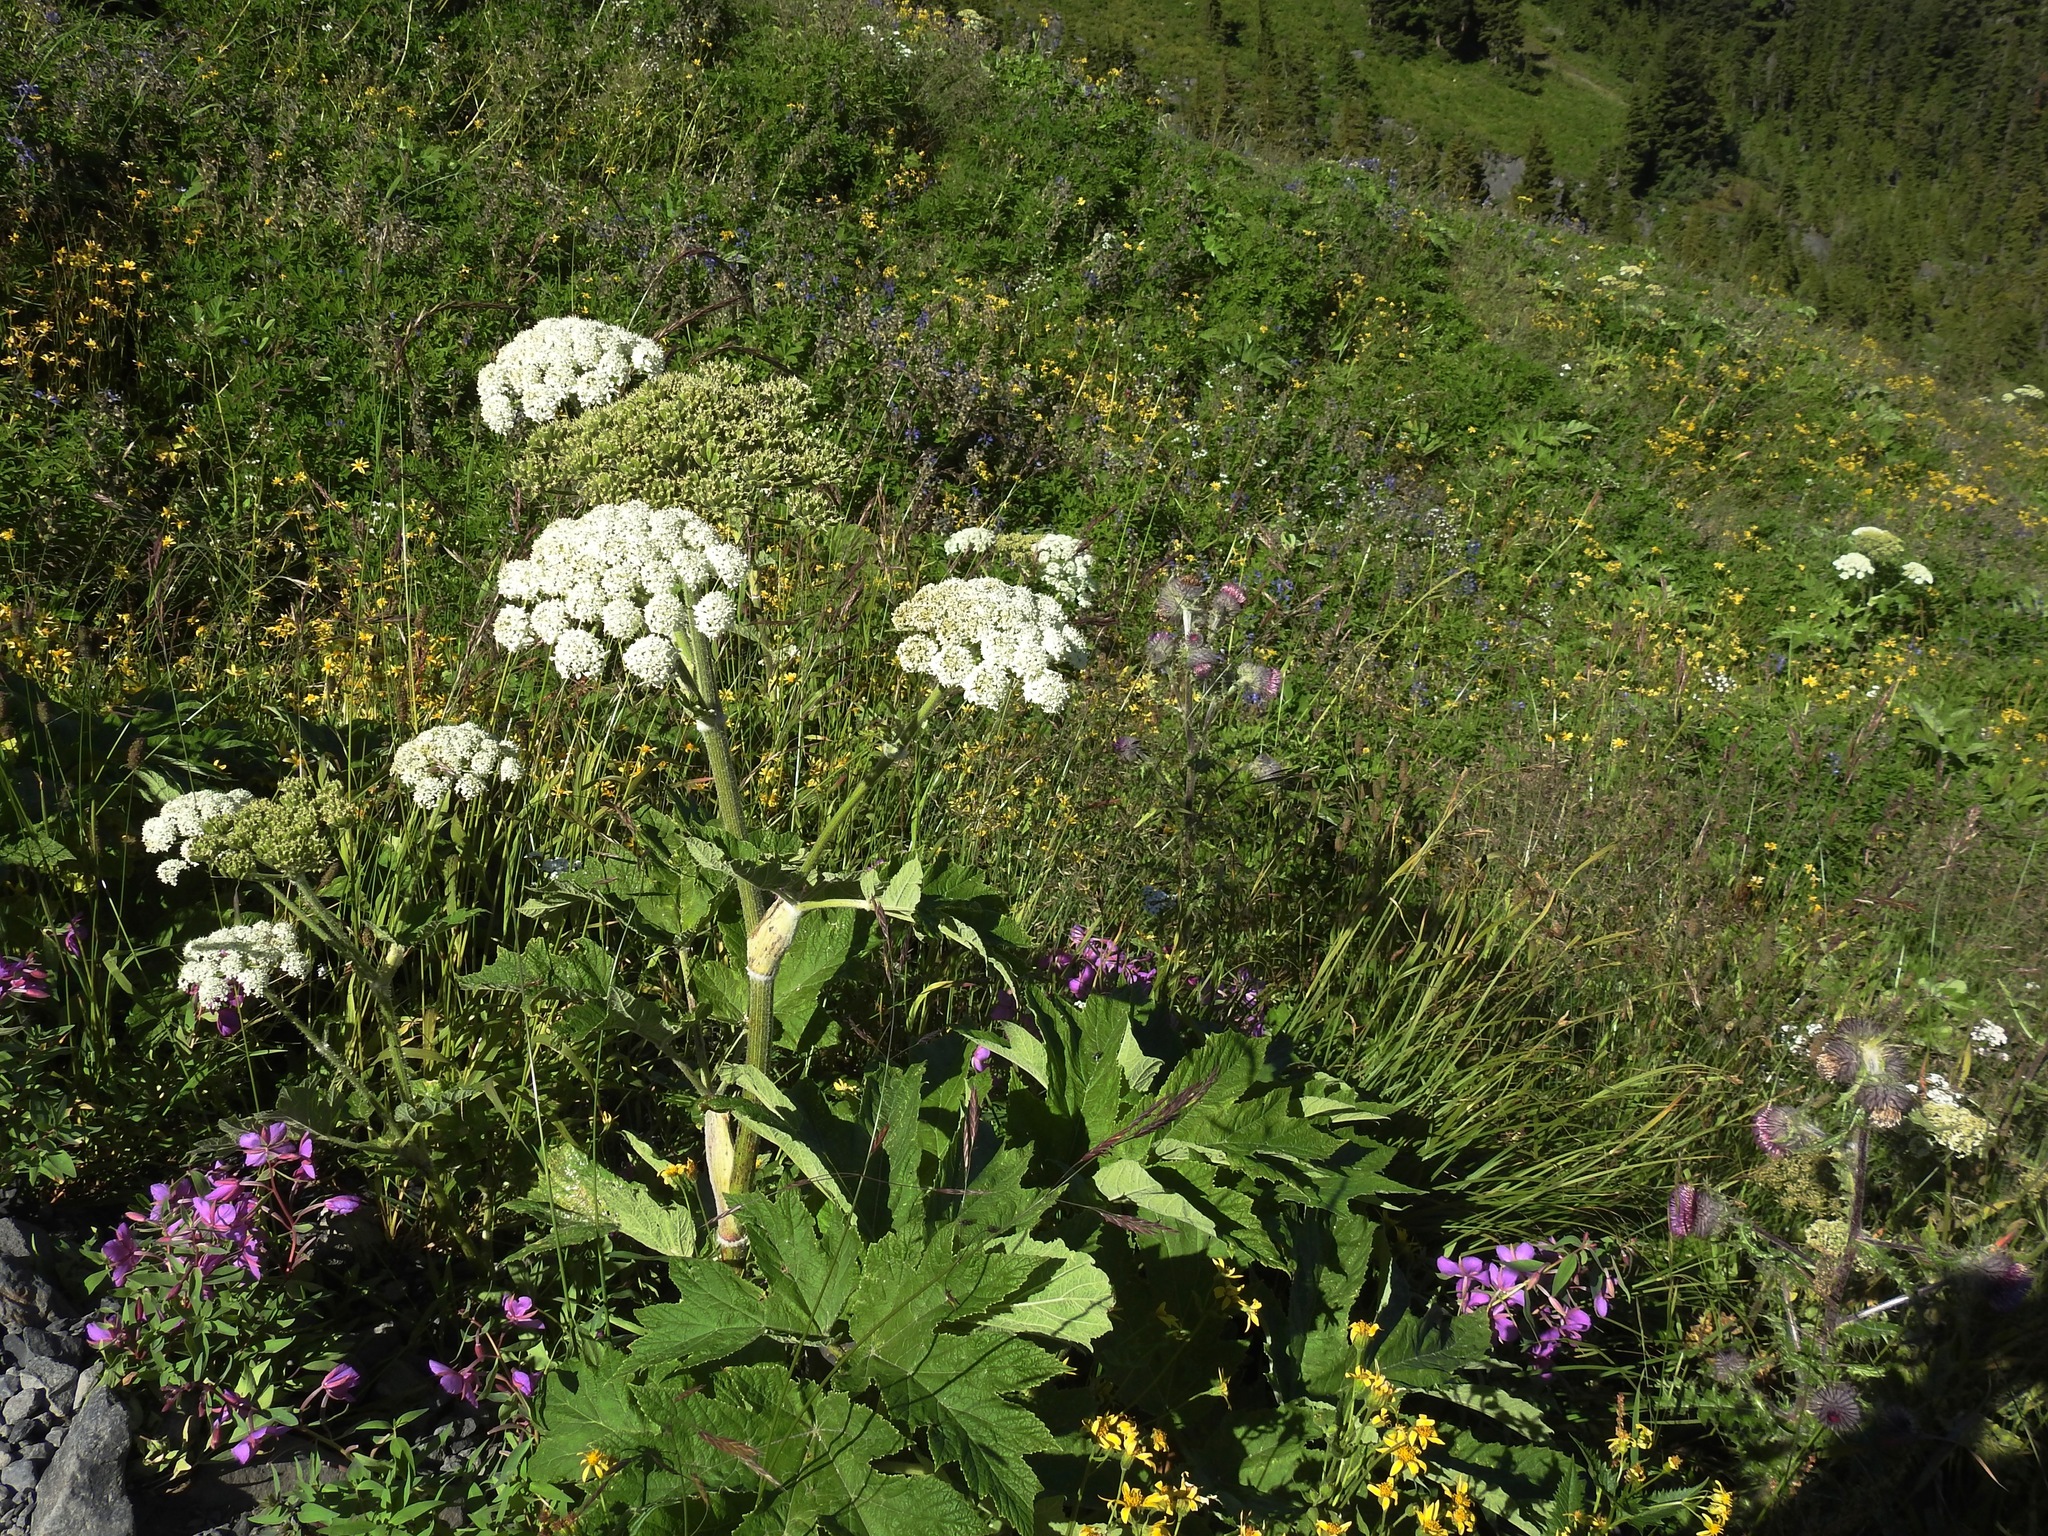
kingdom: Plantae
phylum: Tracheophyta
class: Magnoliopsida
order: Apiales
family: Apiaceae
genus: Heracleum
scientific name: Heracleum maximum
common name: American cow parsnip
